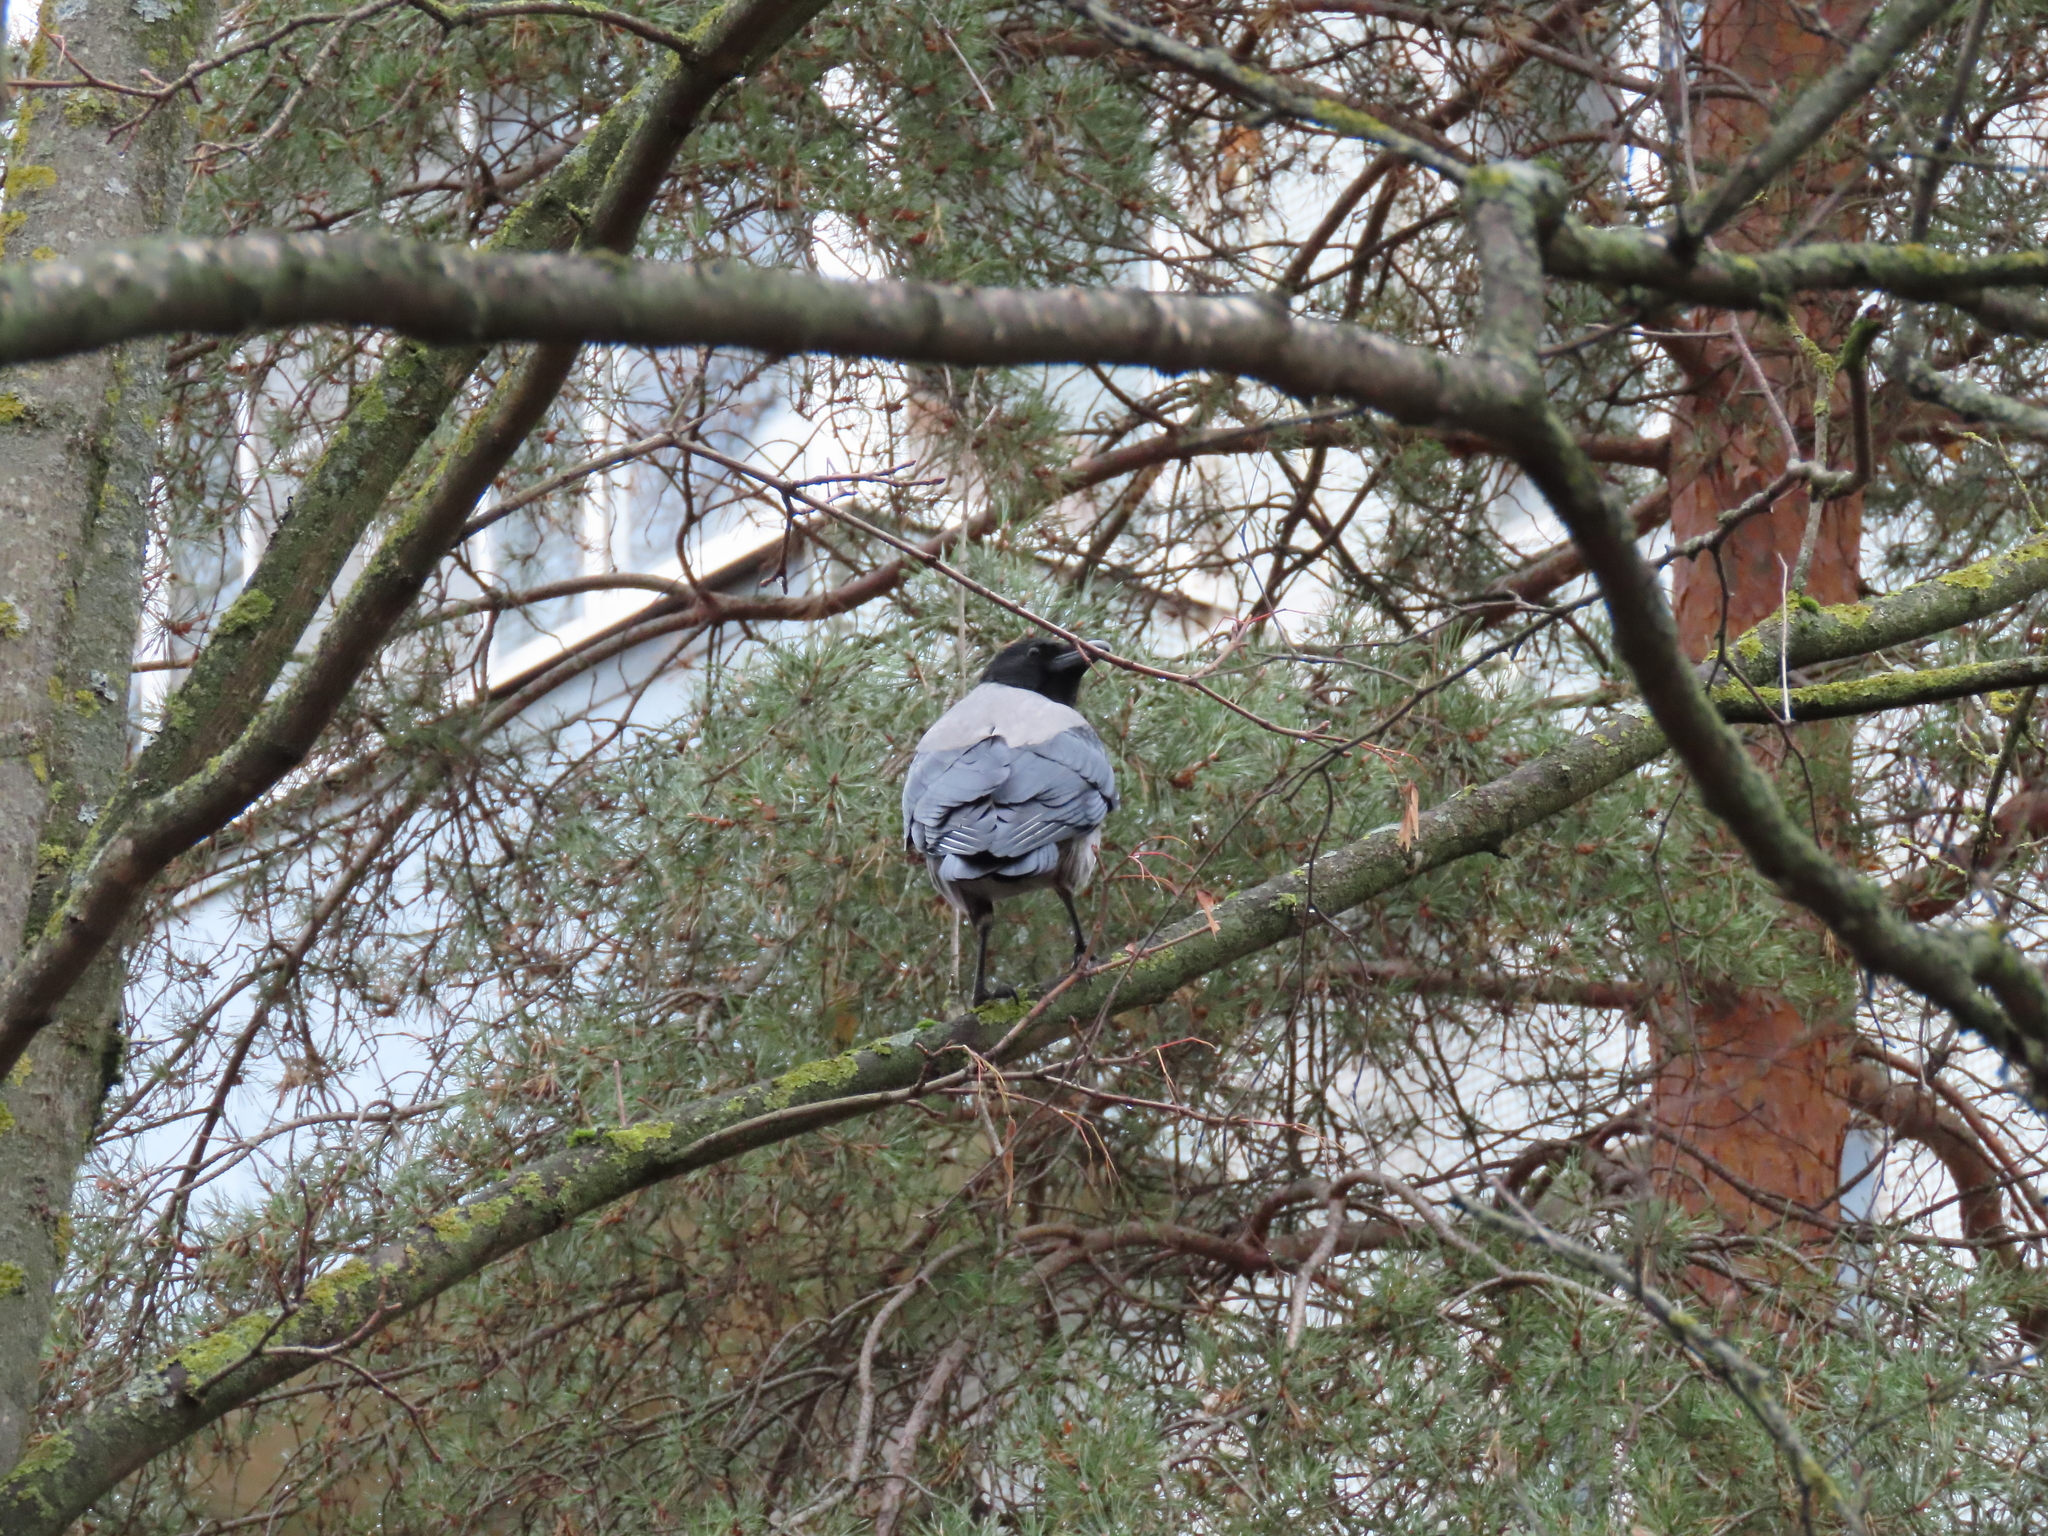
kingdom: Animalia
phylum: Chordata
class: Aves
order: Passeriformes
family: Corvidae
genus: Corvus
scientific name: Corvus cornix
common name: Hooded crow
